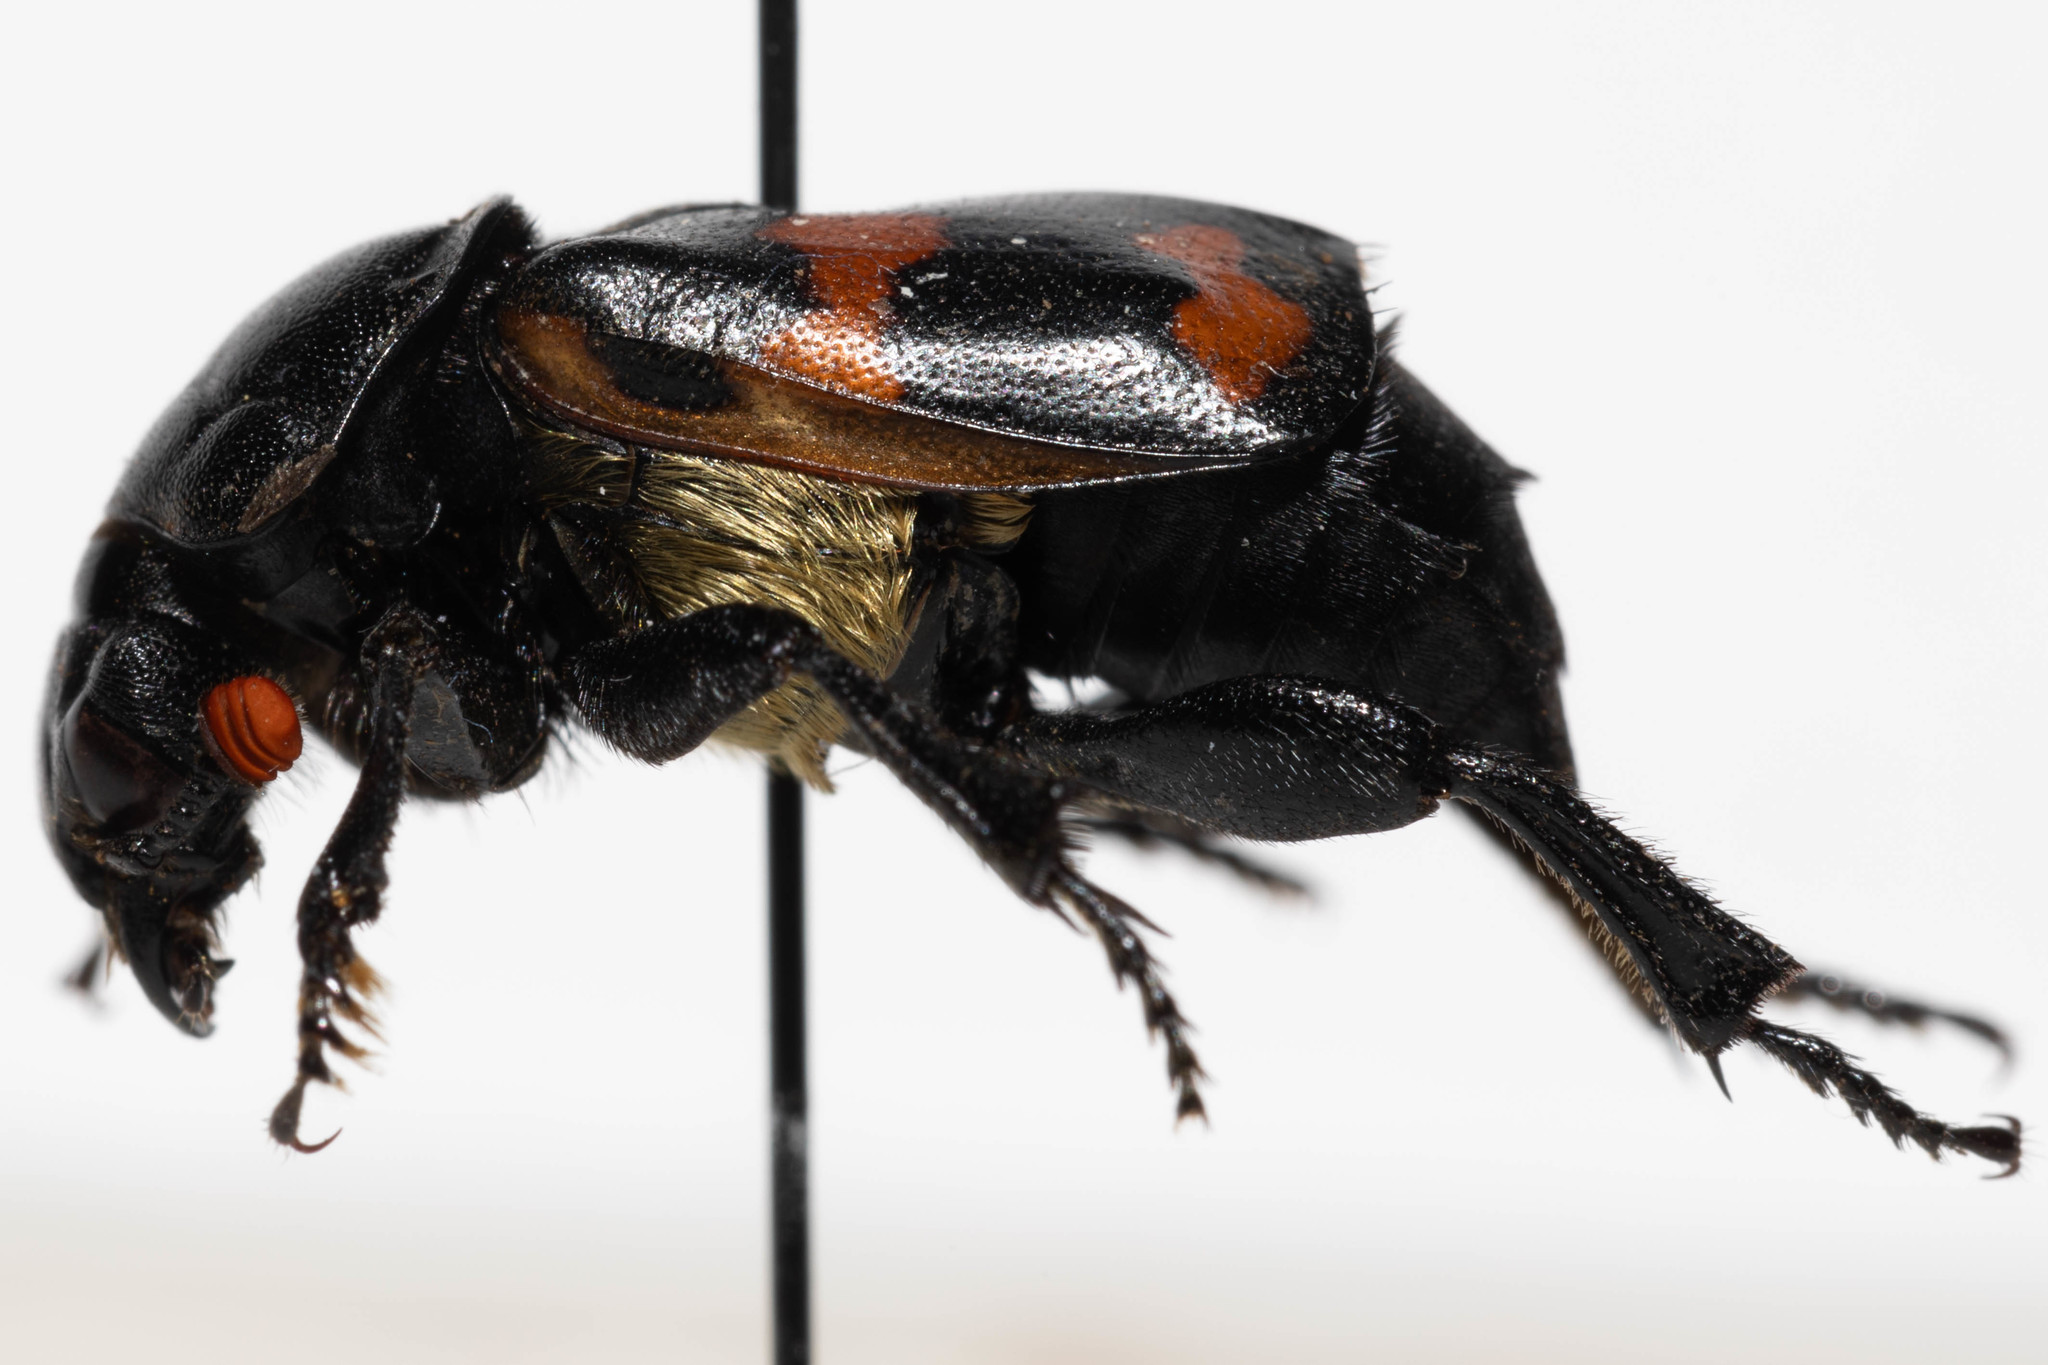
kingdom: Animalia
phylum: Arthropoda
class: Insecta
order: Coleoptera
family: Staphylinidae
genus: Nicrophorus
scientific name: Nicrophorus guttula
